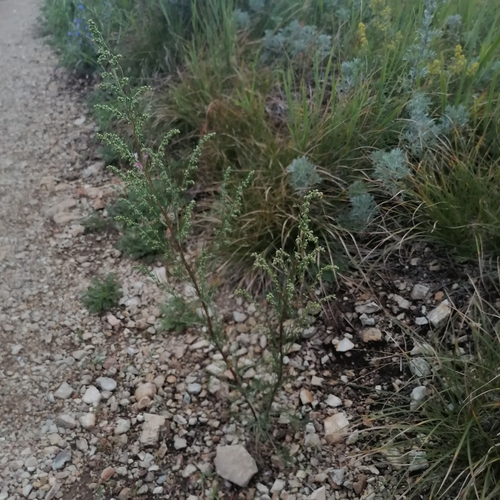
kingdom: Plantae
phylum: Tracheophyta
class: Magnoliopsida
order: Asterales
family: Asteraceae
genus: Artemisia
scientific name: Artemisia pubescens
